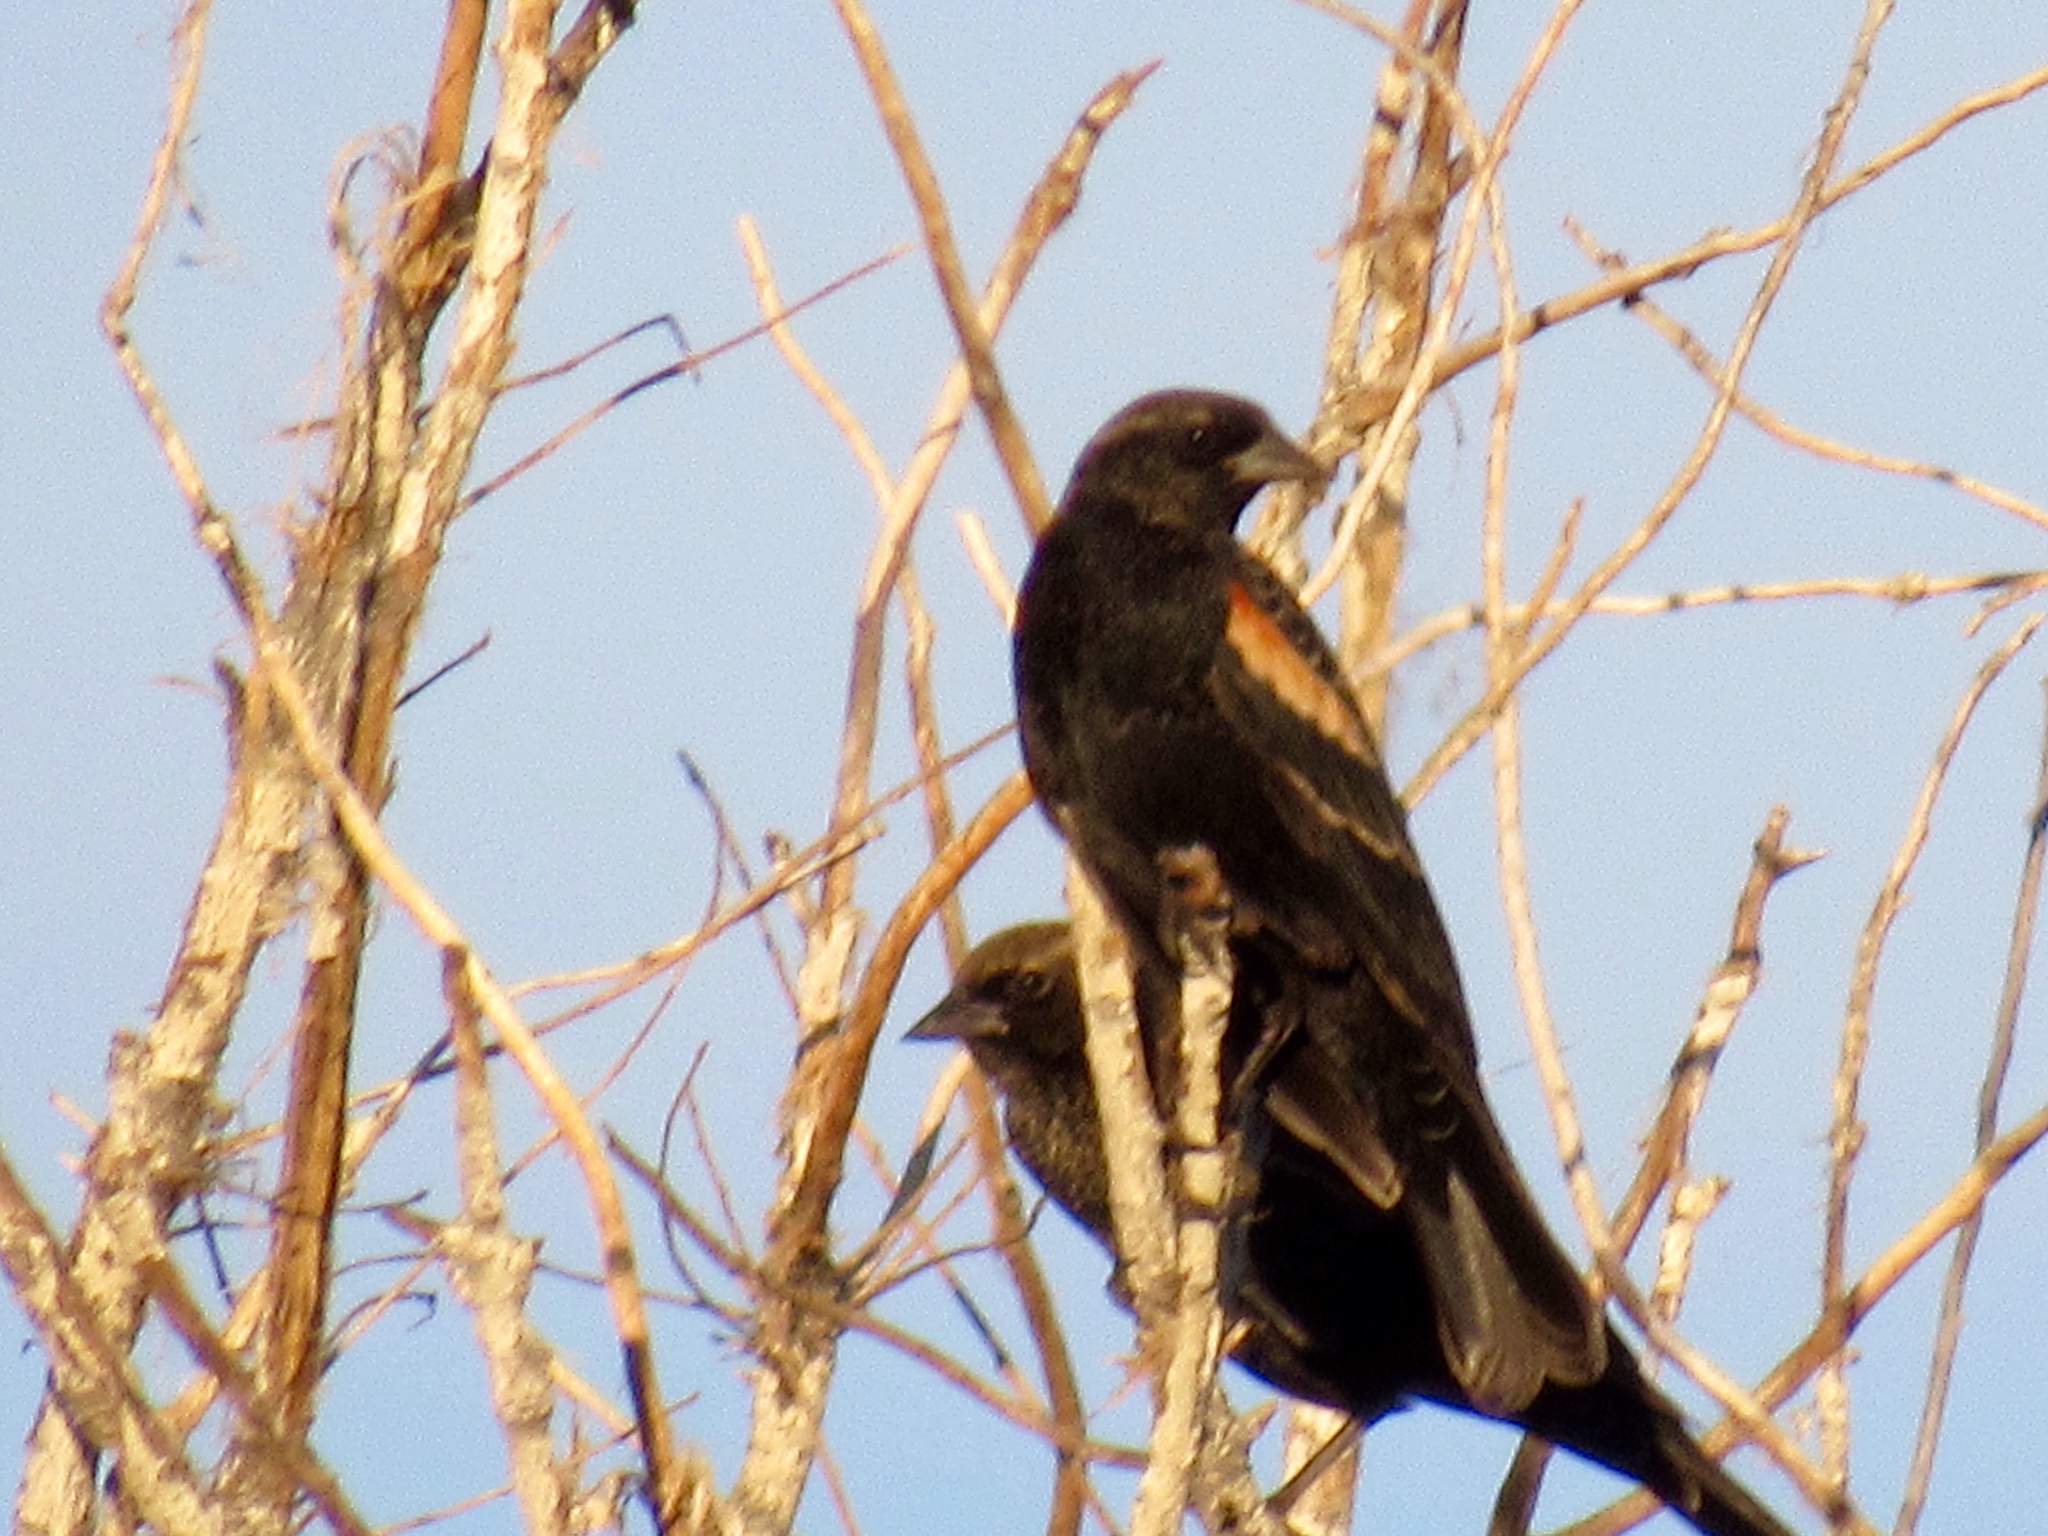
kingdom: Animalia
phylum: Chordata
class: Aves
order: Passeriformes
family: Icteridae
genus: Agelaius
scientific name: Agelaius phoeniceus
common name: Red-winged blackbird
